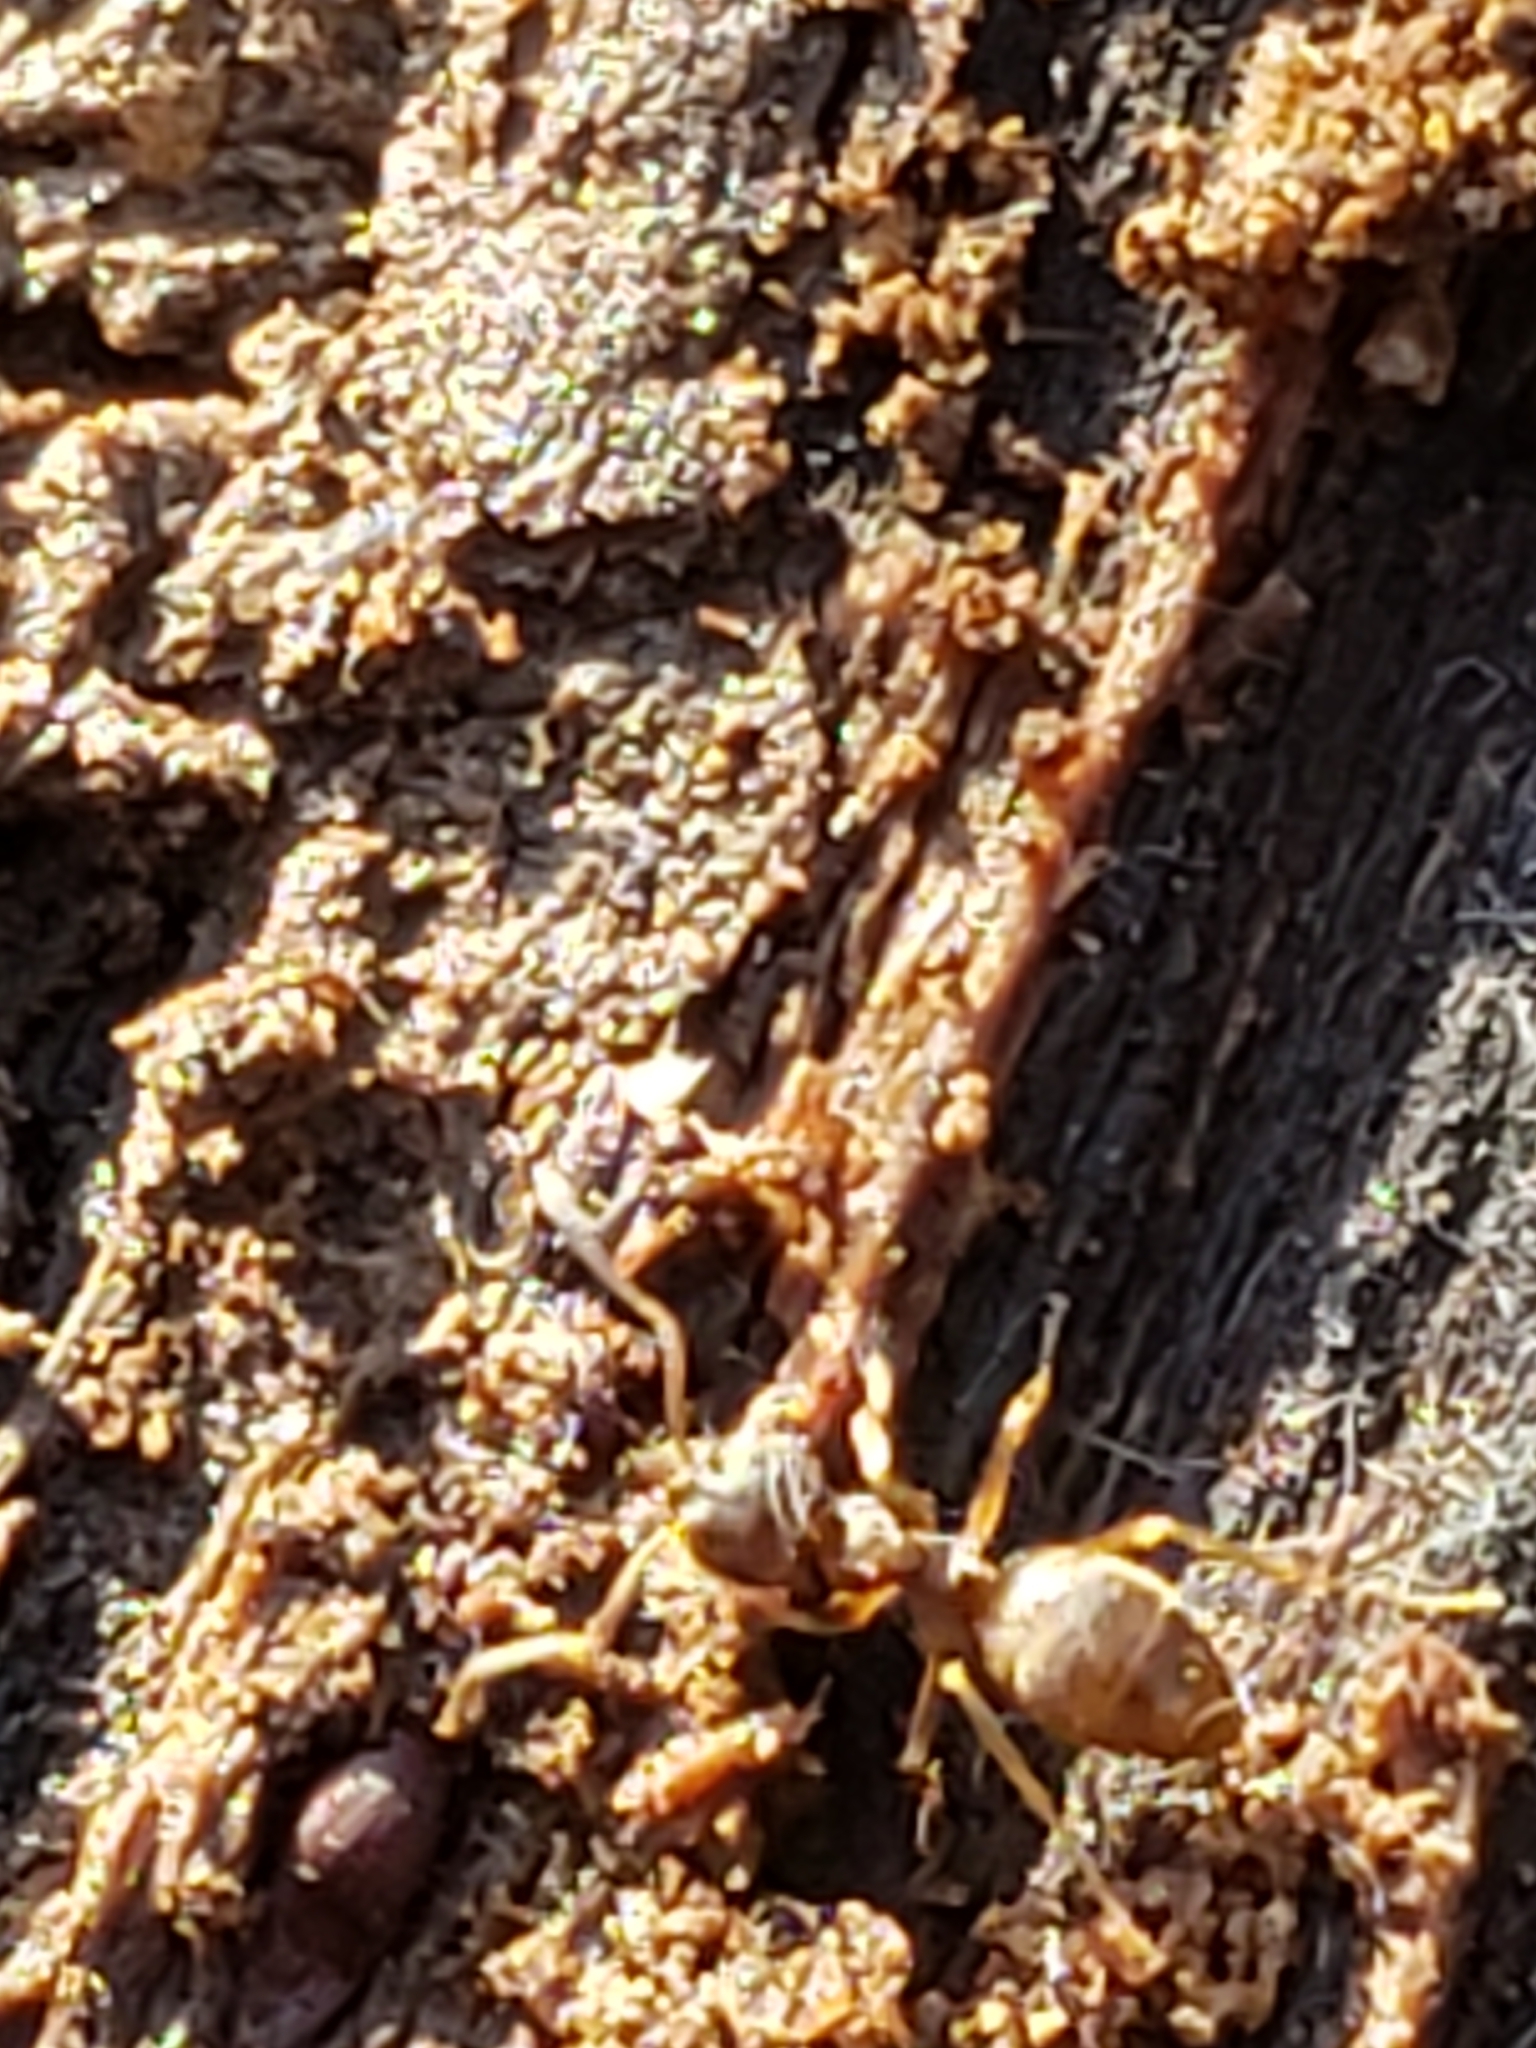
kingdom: Animalia
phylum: Arthropoda
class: Insecta
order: Hymenoptera
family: Formicidae
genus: Lasius
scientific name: Lasius neoniger
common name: Turfgrass ant
